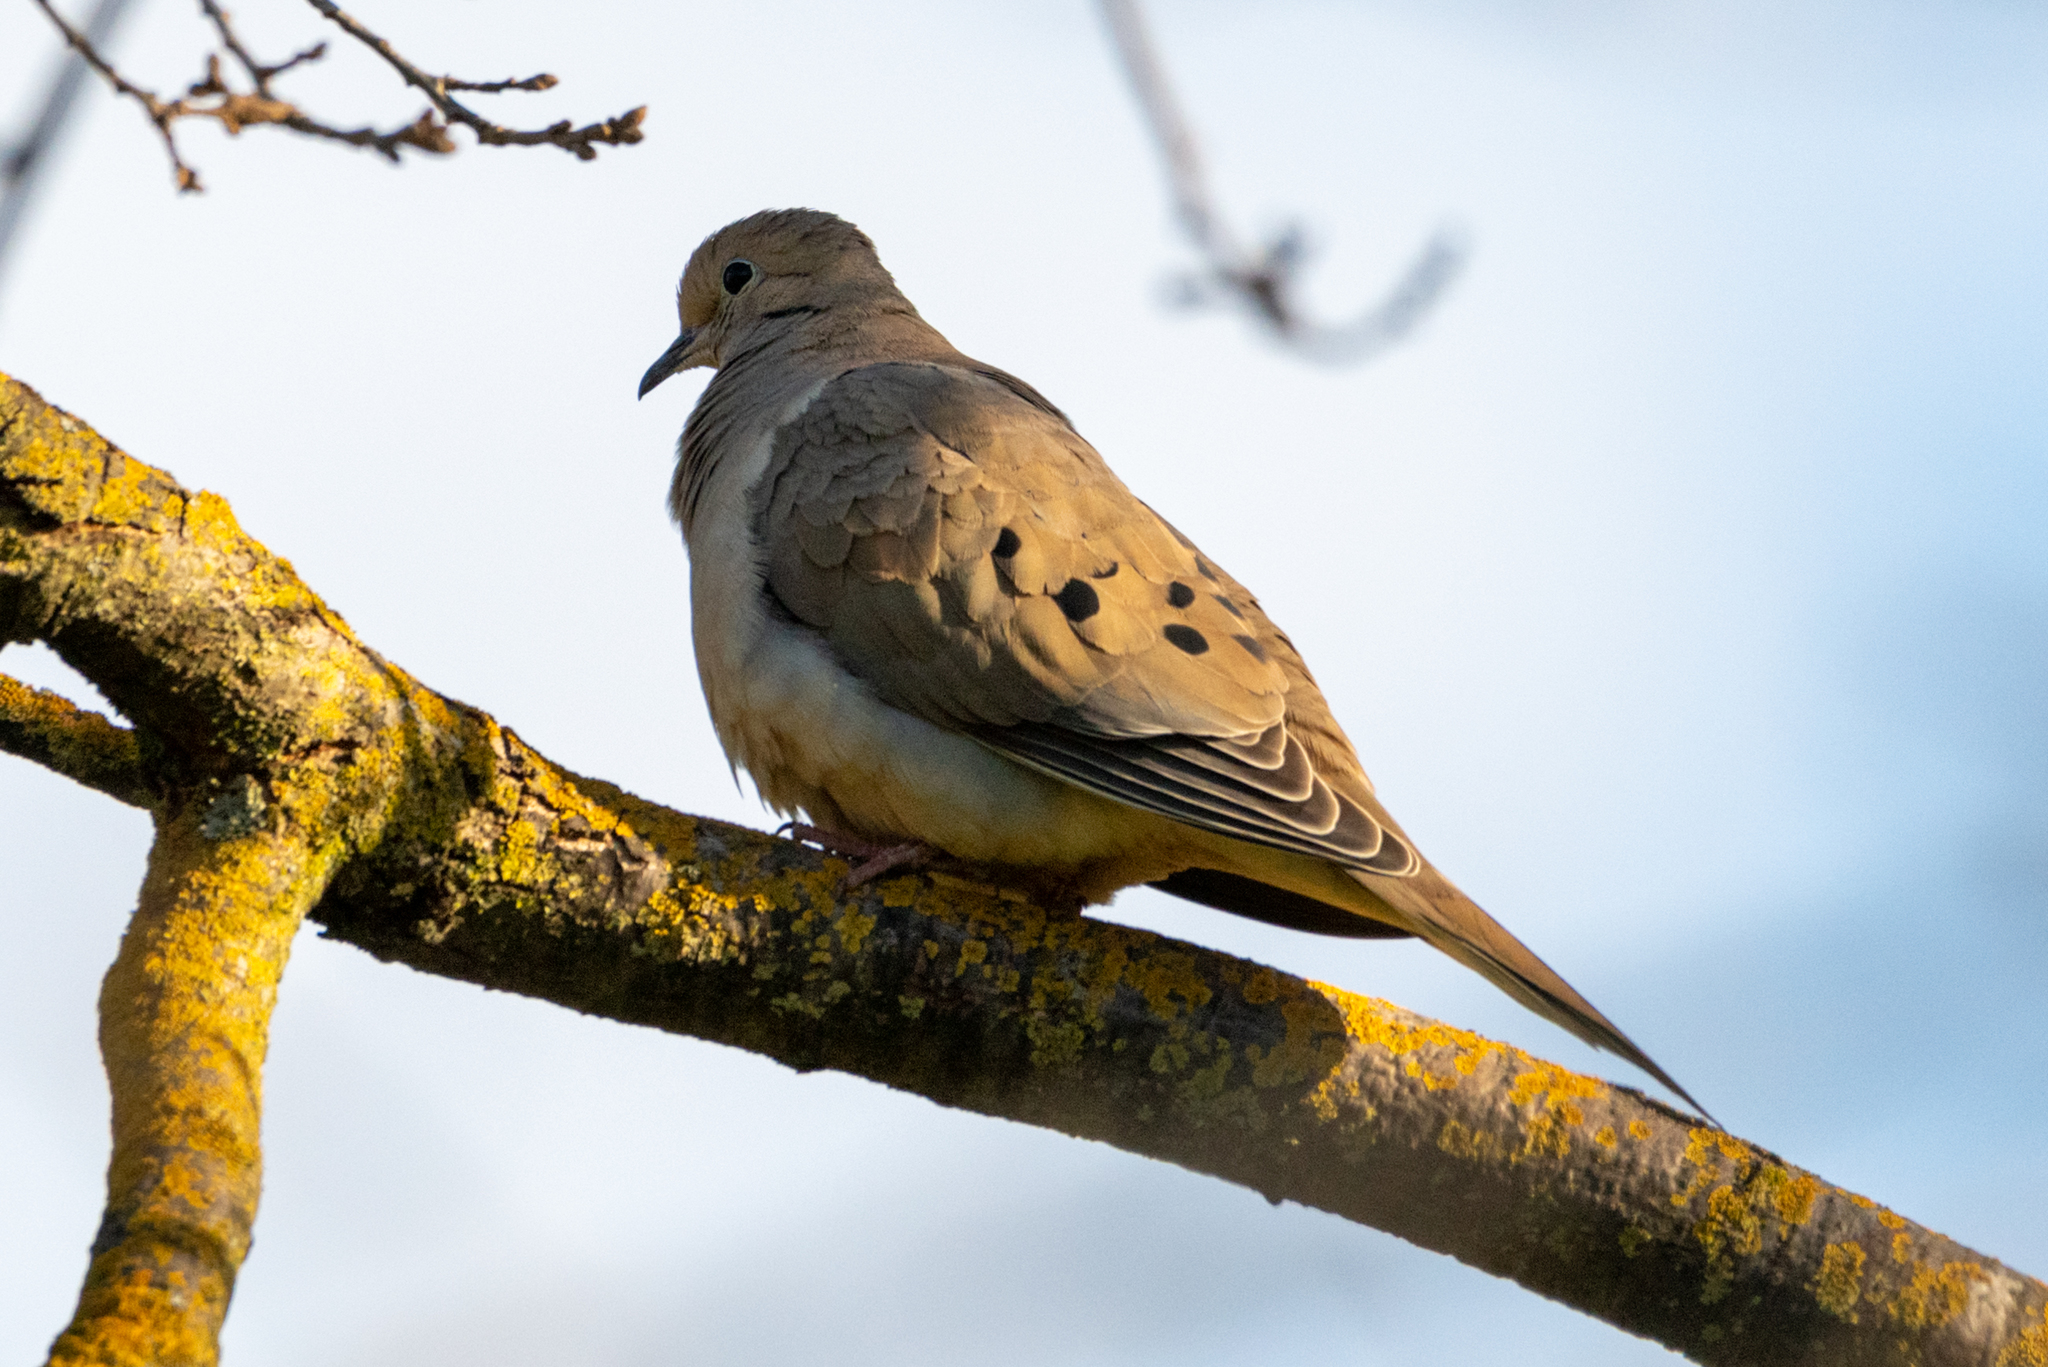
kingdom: Animalia
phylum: Chordata
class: Aves
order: Columbiformes
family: Columbidae
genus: Zenaida
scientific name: Zenaida macroura
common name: Mourning dove
